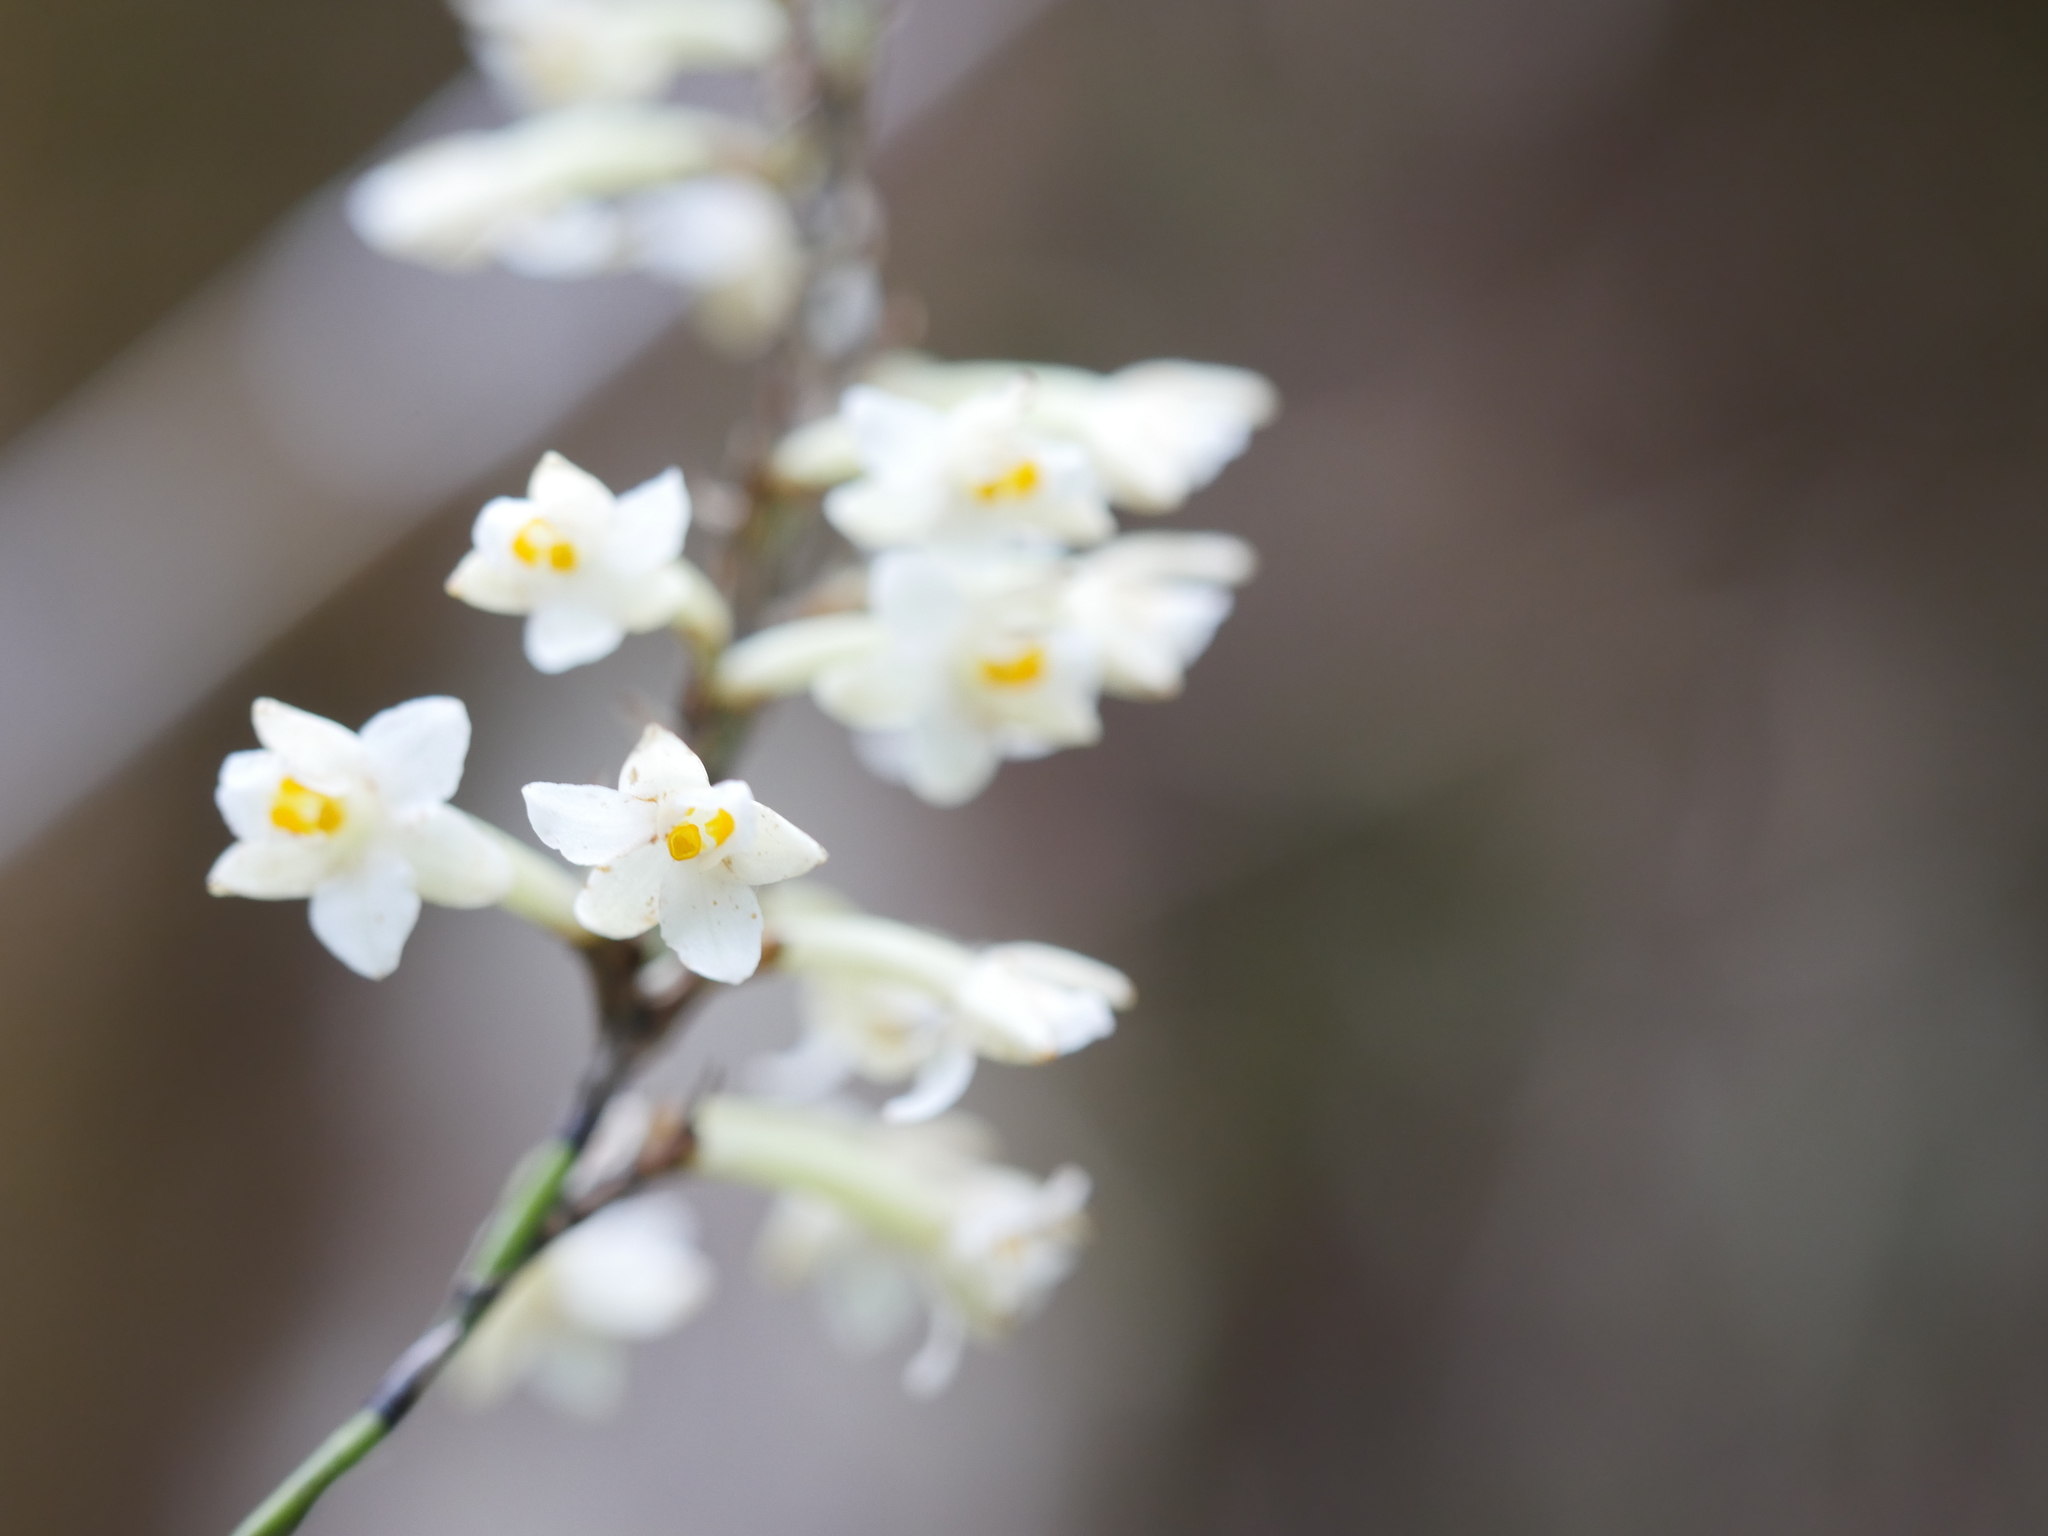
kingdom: Plantae
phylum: Tracheophyta
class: Liliopsida
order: Asparagales
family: Orchidaceae
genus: Earina
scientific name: Earina autumnalis
